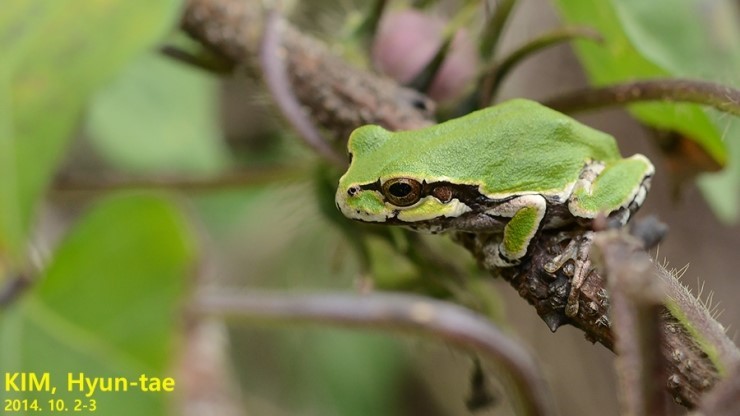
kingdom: Animalia
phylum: Chordata
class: Amphibia
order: Anura
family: Hylidae
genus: Dryophytes
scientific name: Dryophytes japonicus
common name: Japanese treefrog
